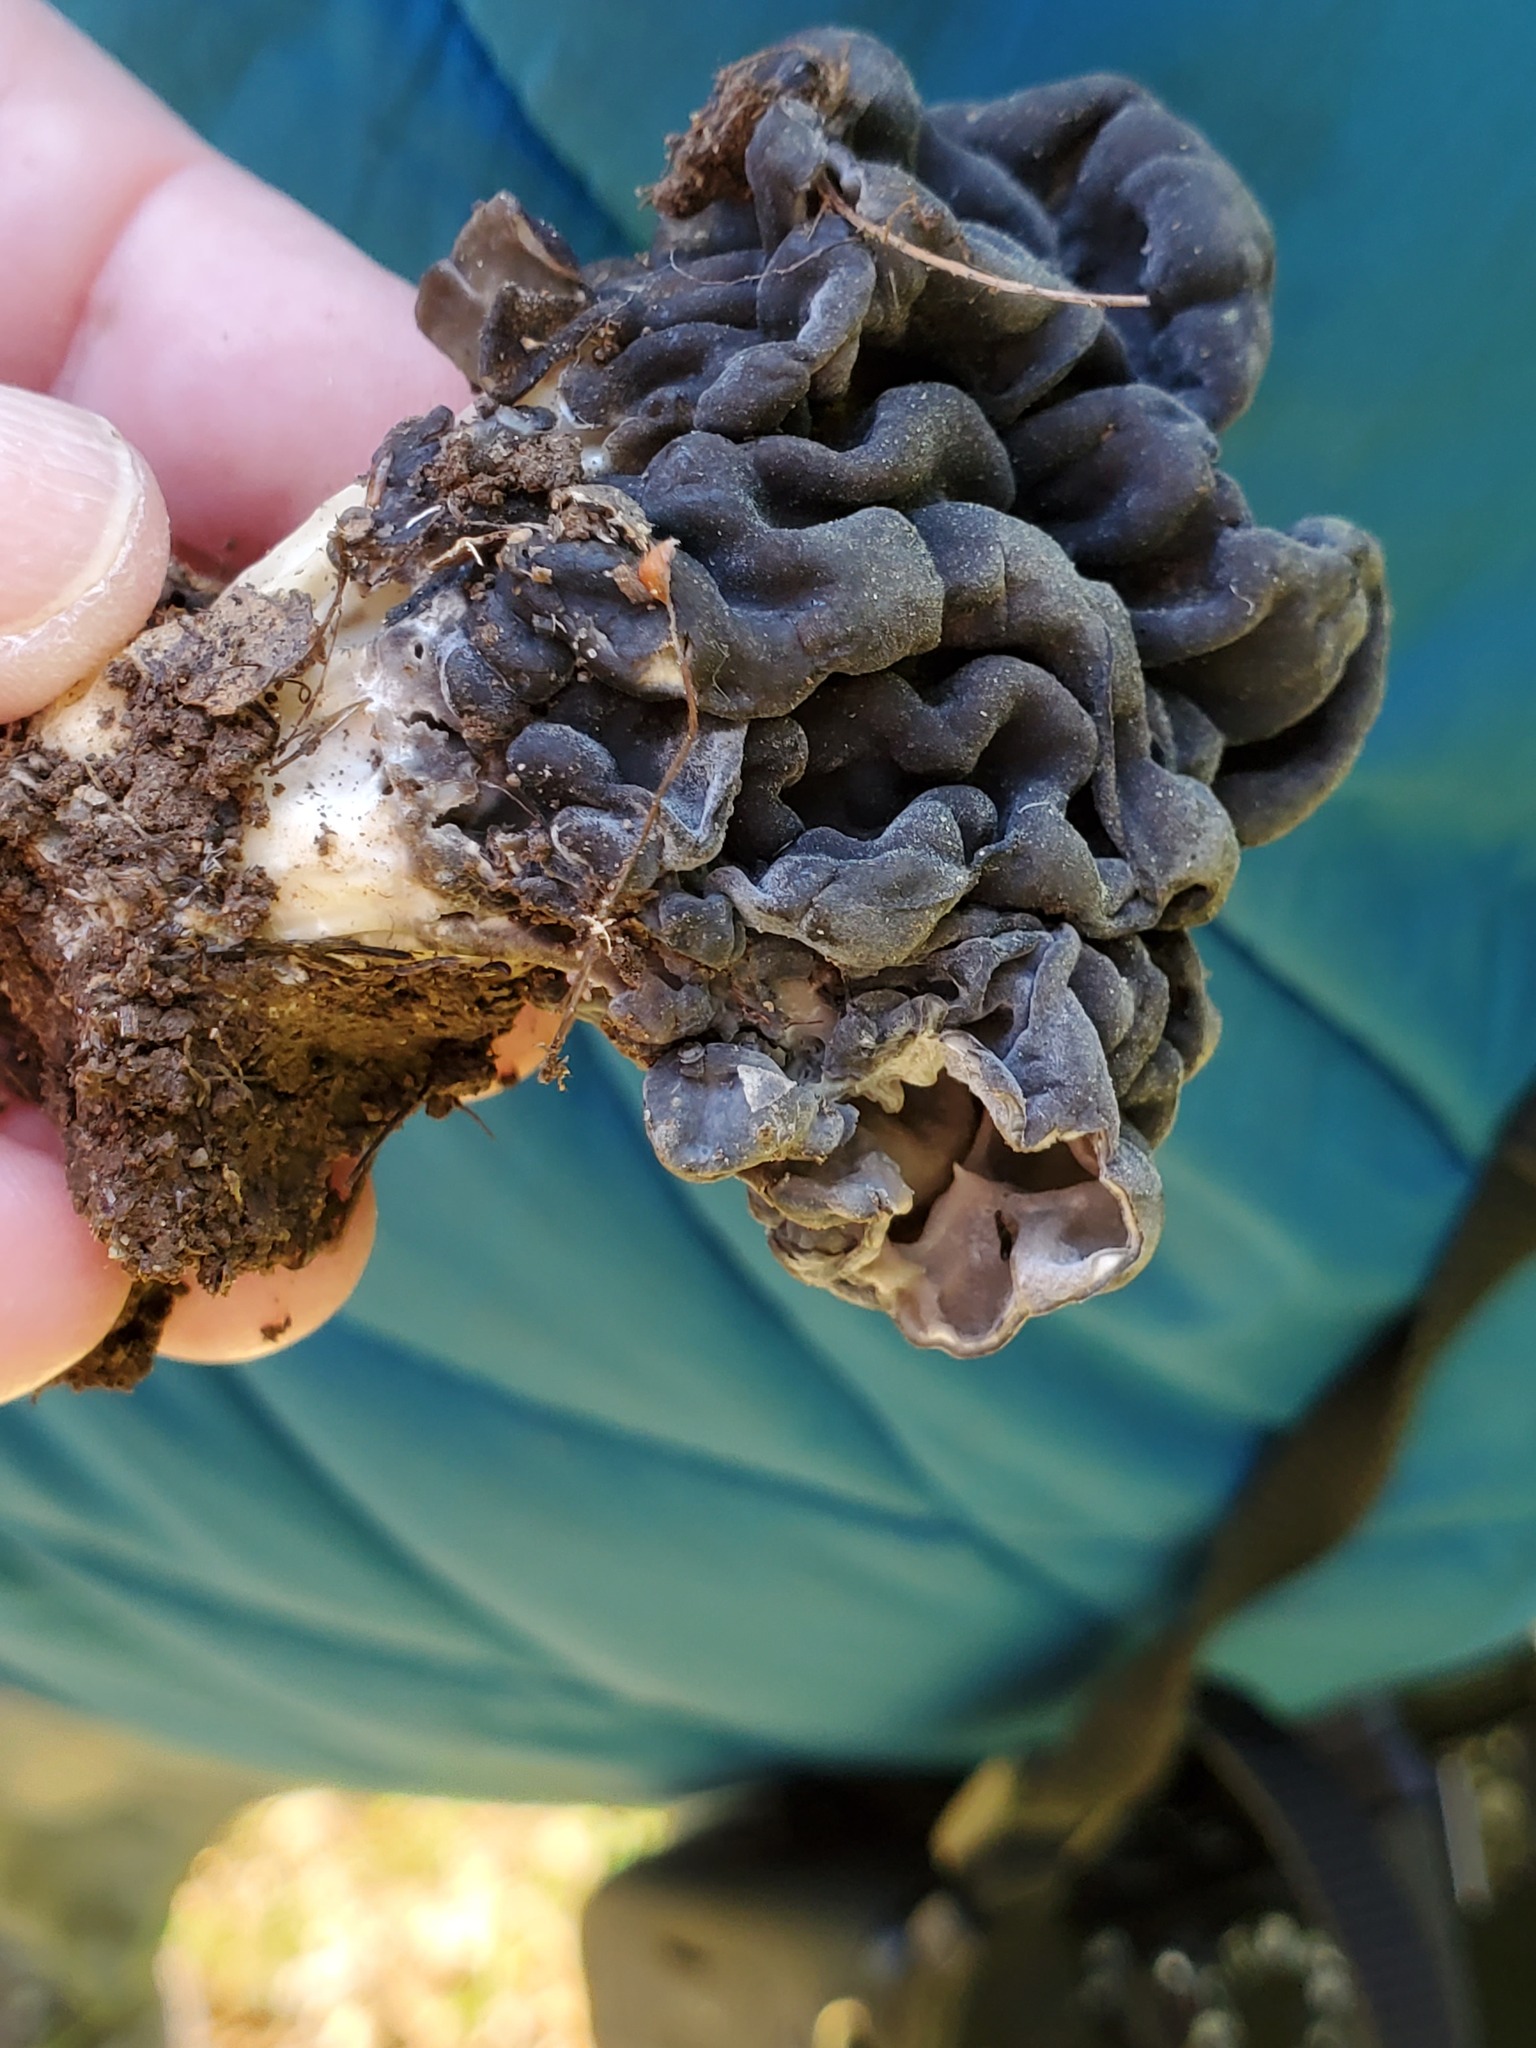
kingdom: Fungi
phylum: Ascomycota
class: Pezizomycetes
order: Pezizales
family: Helvellaceae
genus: Helvella
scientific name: Helvella dryophila
